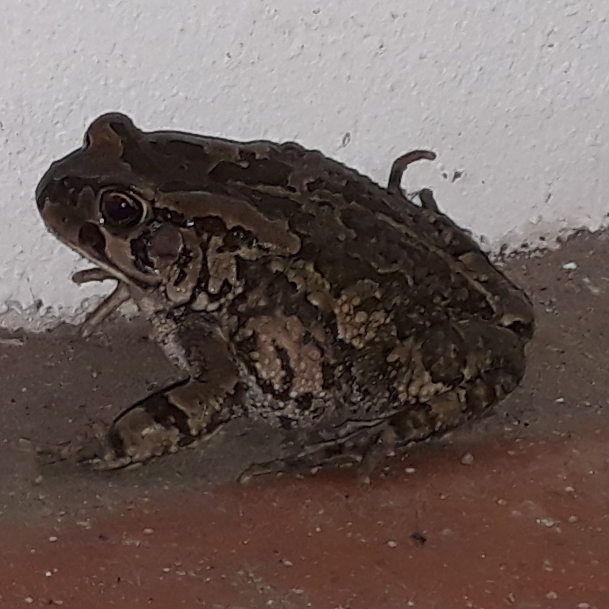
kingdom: Animalia
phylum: Chordata
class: Amphibia
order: Anura
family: Bufonidae
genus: Sclerophrys
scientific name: Sclerophrys capensis
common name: Ranger’s toad
